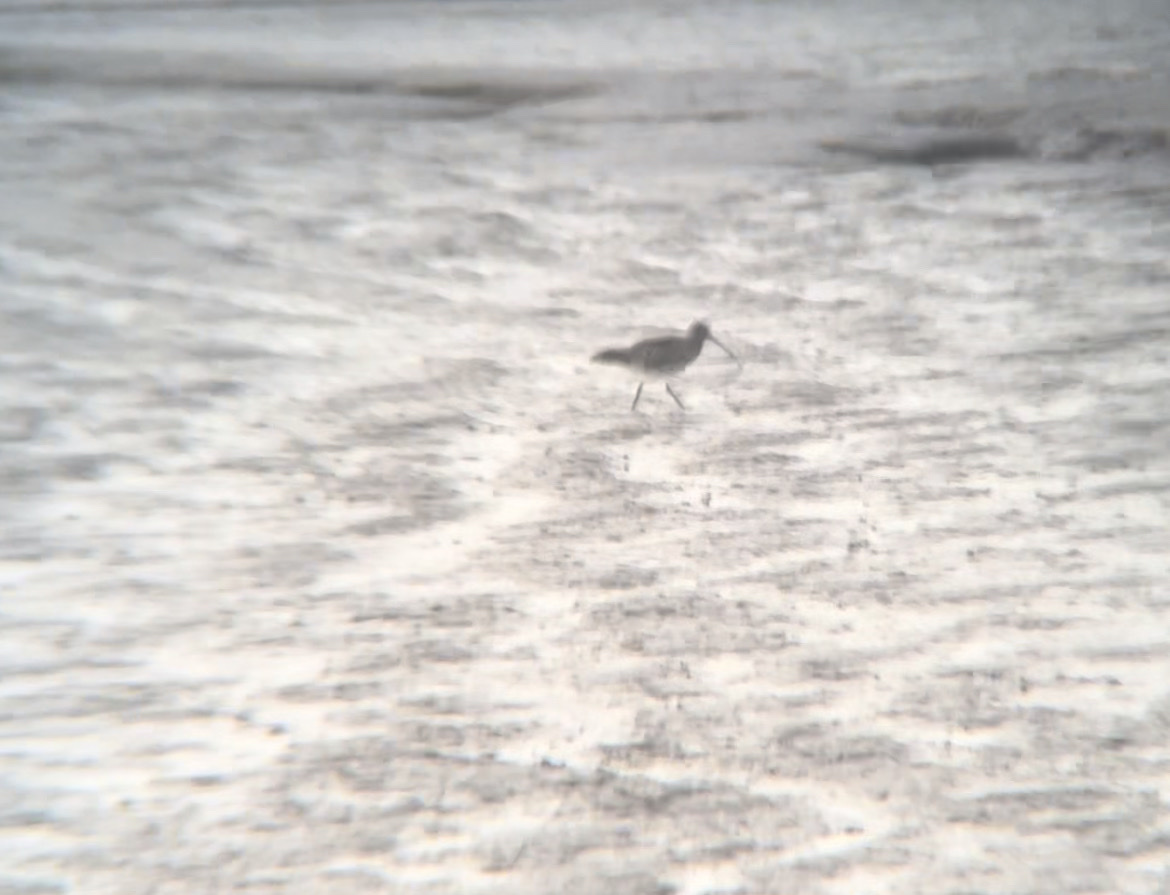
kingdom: Animalia
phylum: Chordata
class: Aves
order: Charadriiformes
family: Scolopacidae
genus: Numenius
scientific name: Numenius arquata
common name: Eurasian curlew
